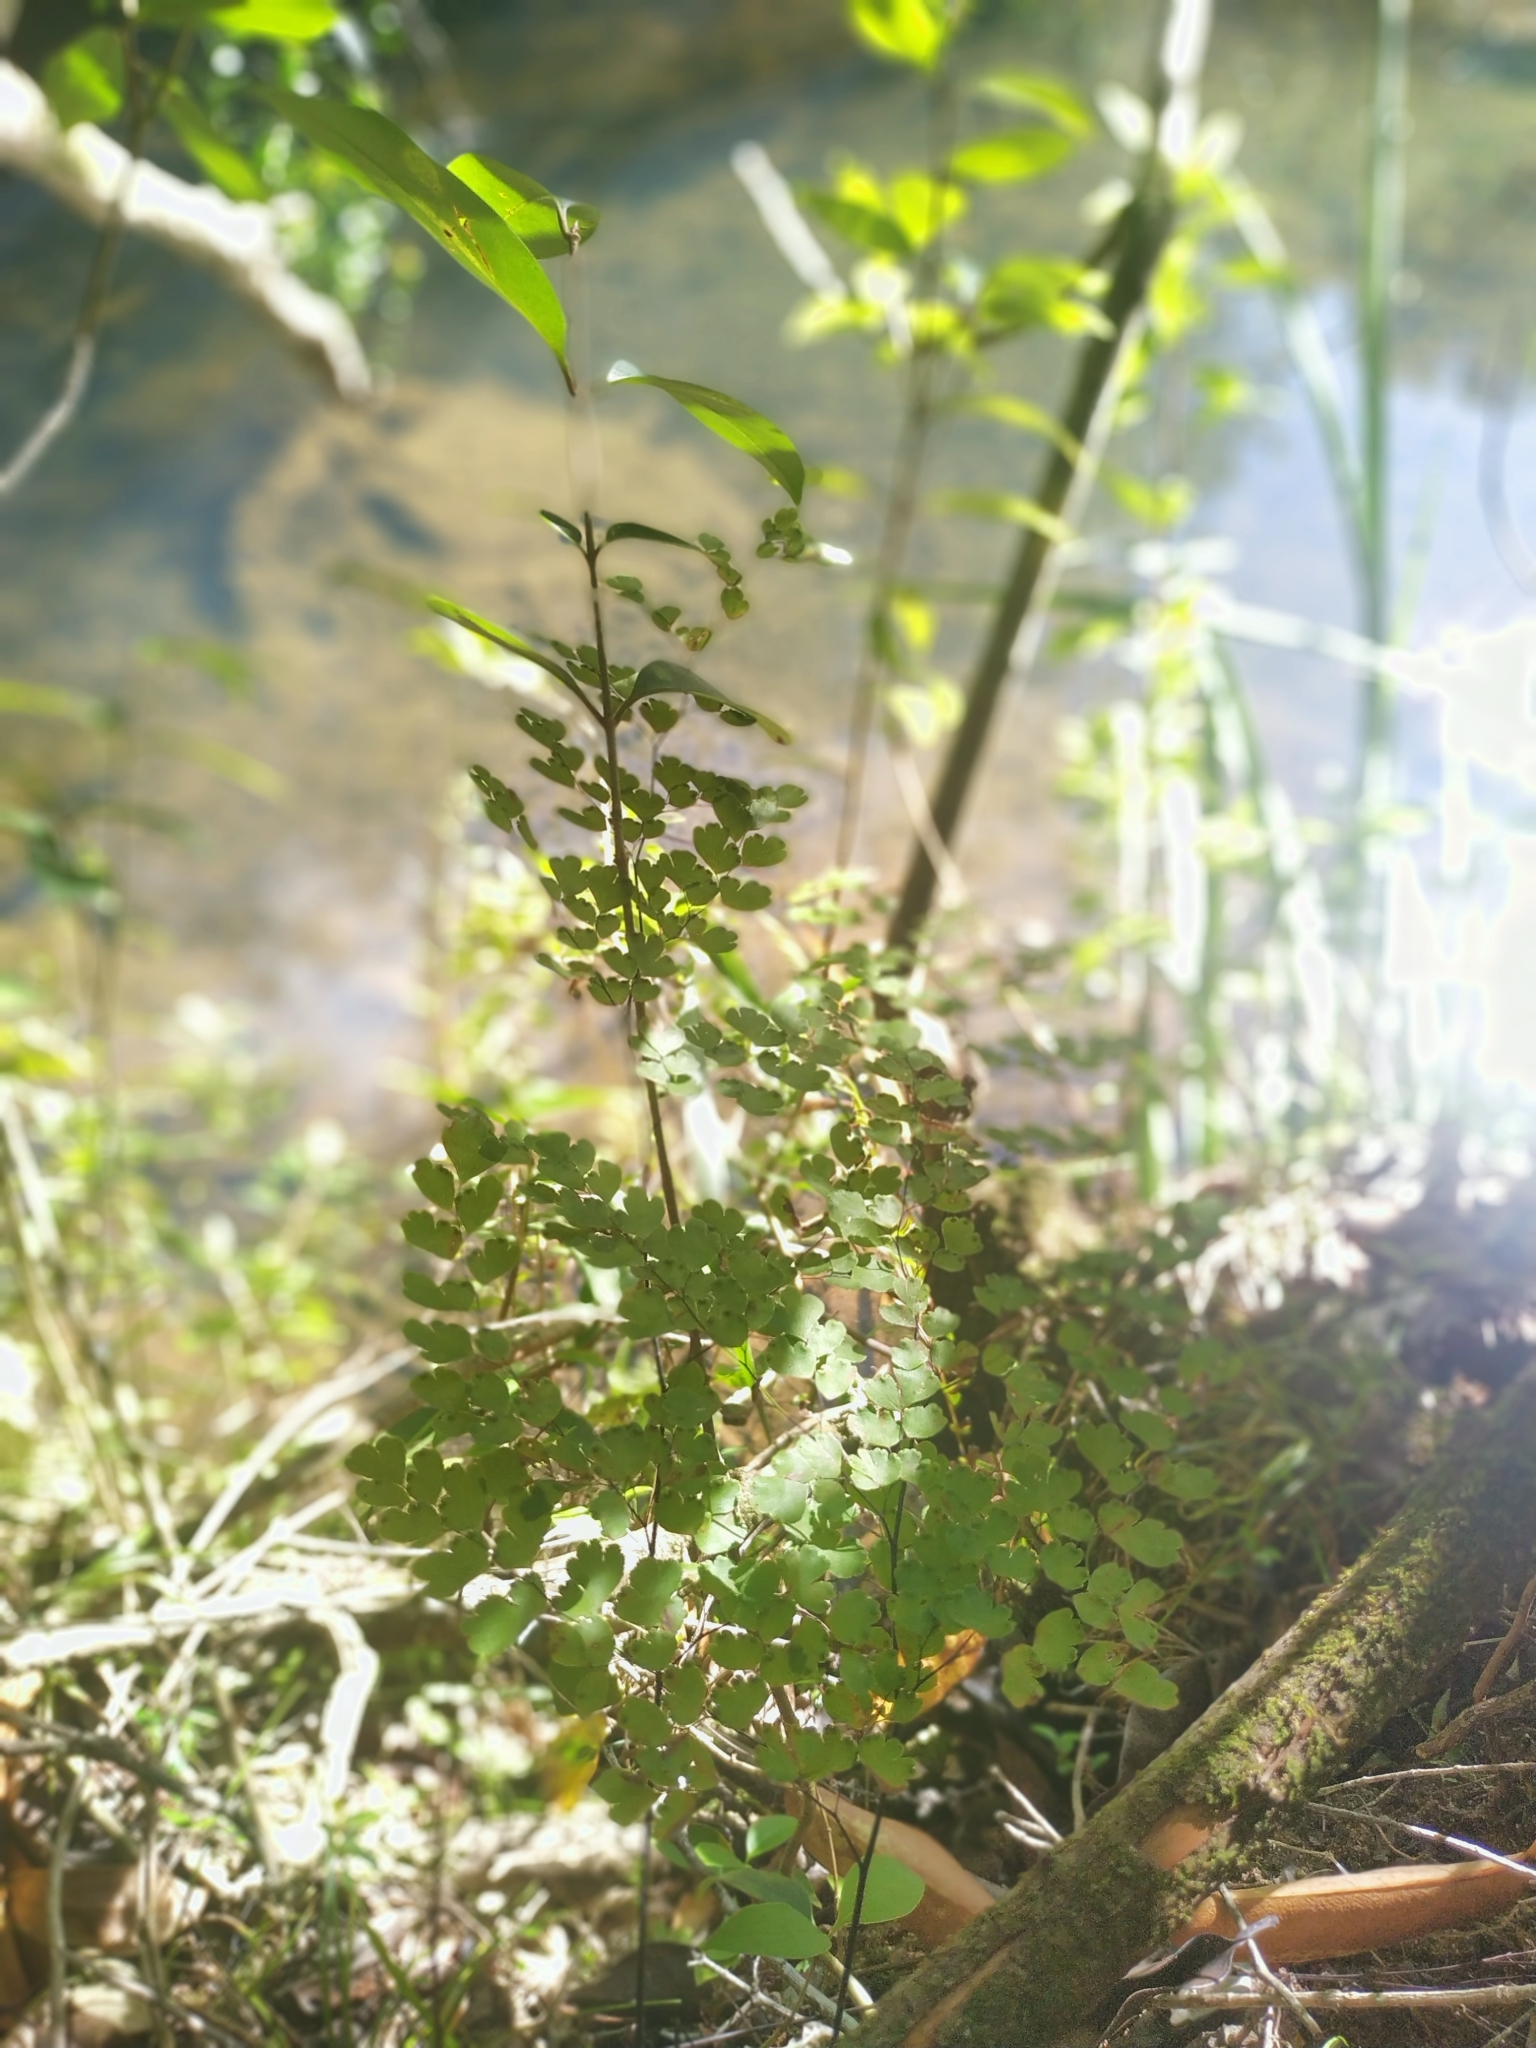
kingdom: Plantae
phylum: Tracheophyta
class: Polypodiopsida
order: Polypodiales
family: Pteridaceae
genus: Adiantum
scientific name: Adiantum raddianum
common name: Delta maidenhair fern
